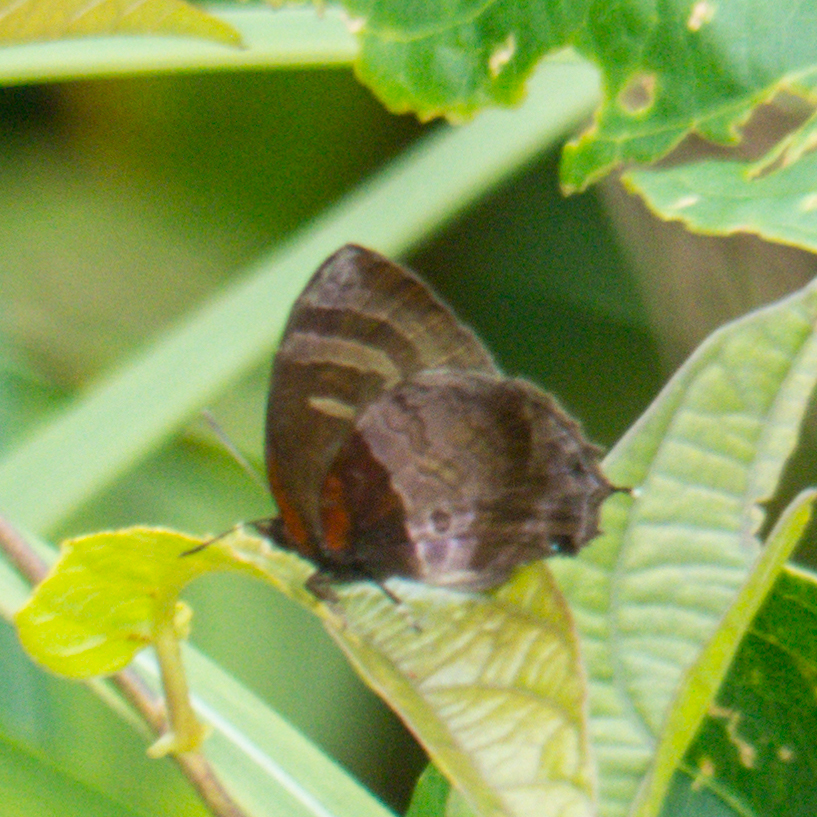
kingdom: Animalia
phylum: Arthropoda
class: Insecta
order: Lepidoptera
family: Lycaenidae
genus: Flos
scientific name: Flos apidanus
